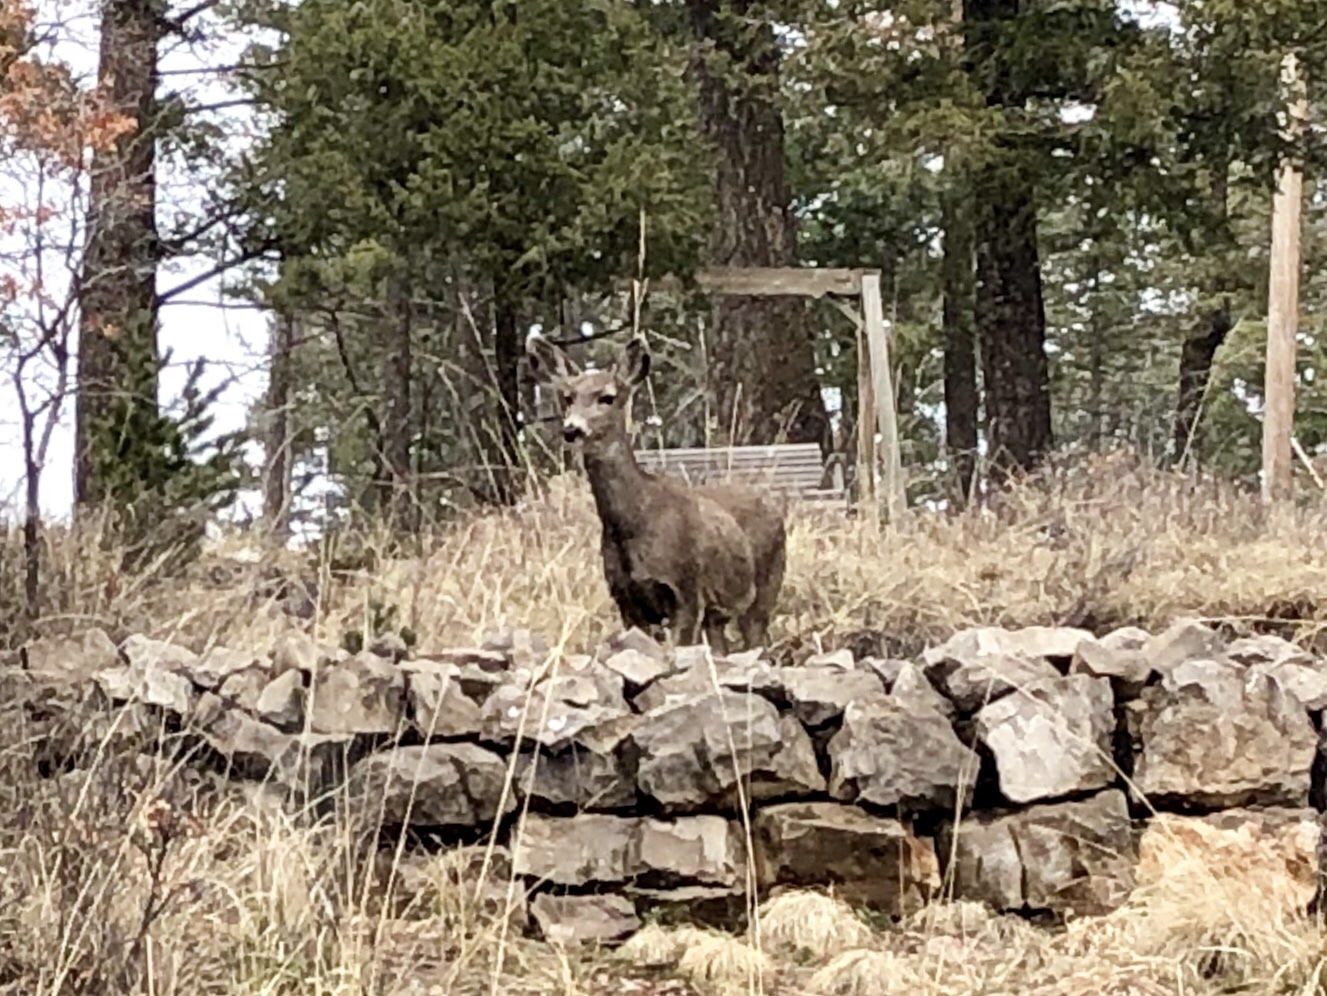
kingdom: Animalia
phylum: Chordata
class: Mammalia
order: Artiodactyla
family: Cervidae
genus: Odocoileus
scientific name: Odocoileus hemionus
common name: Mule deer
